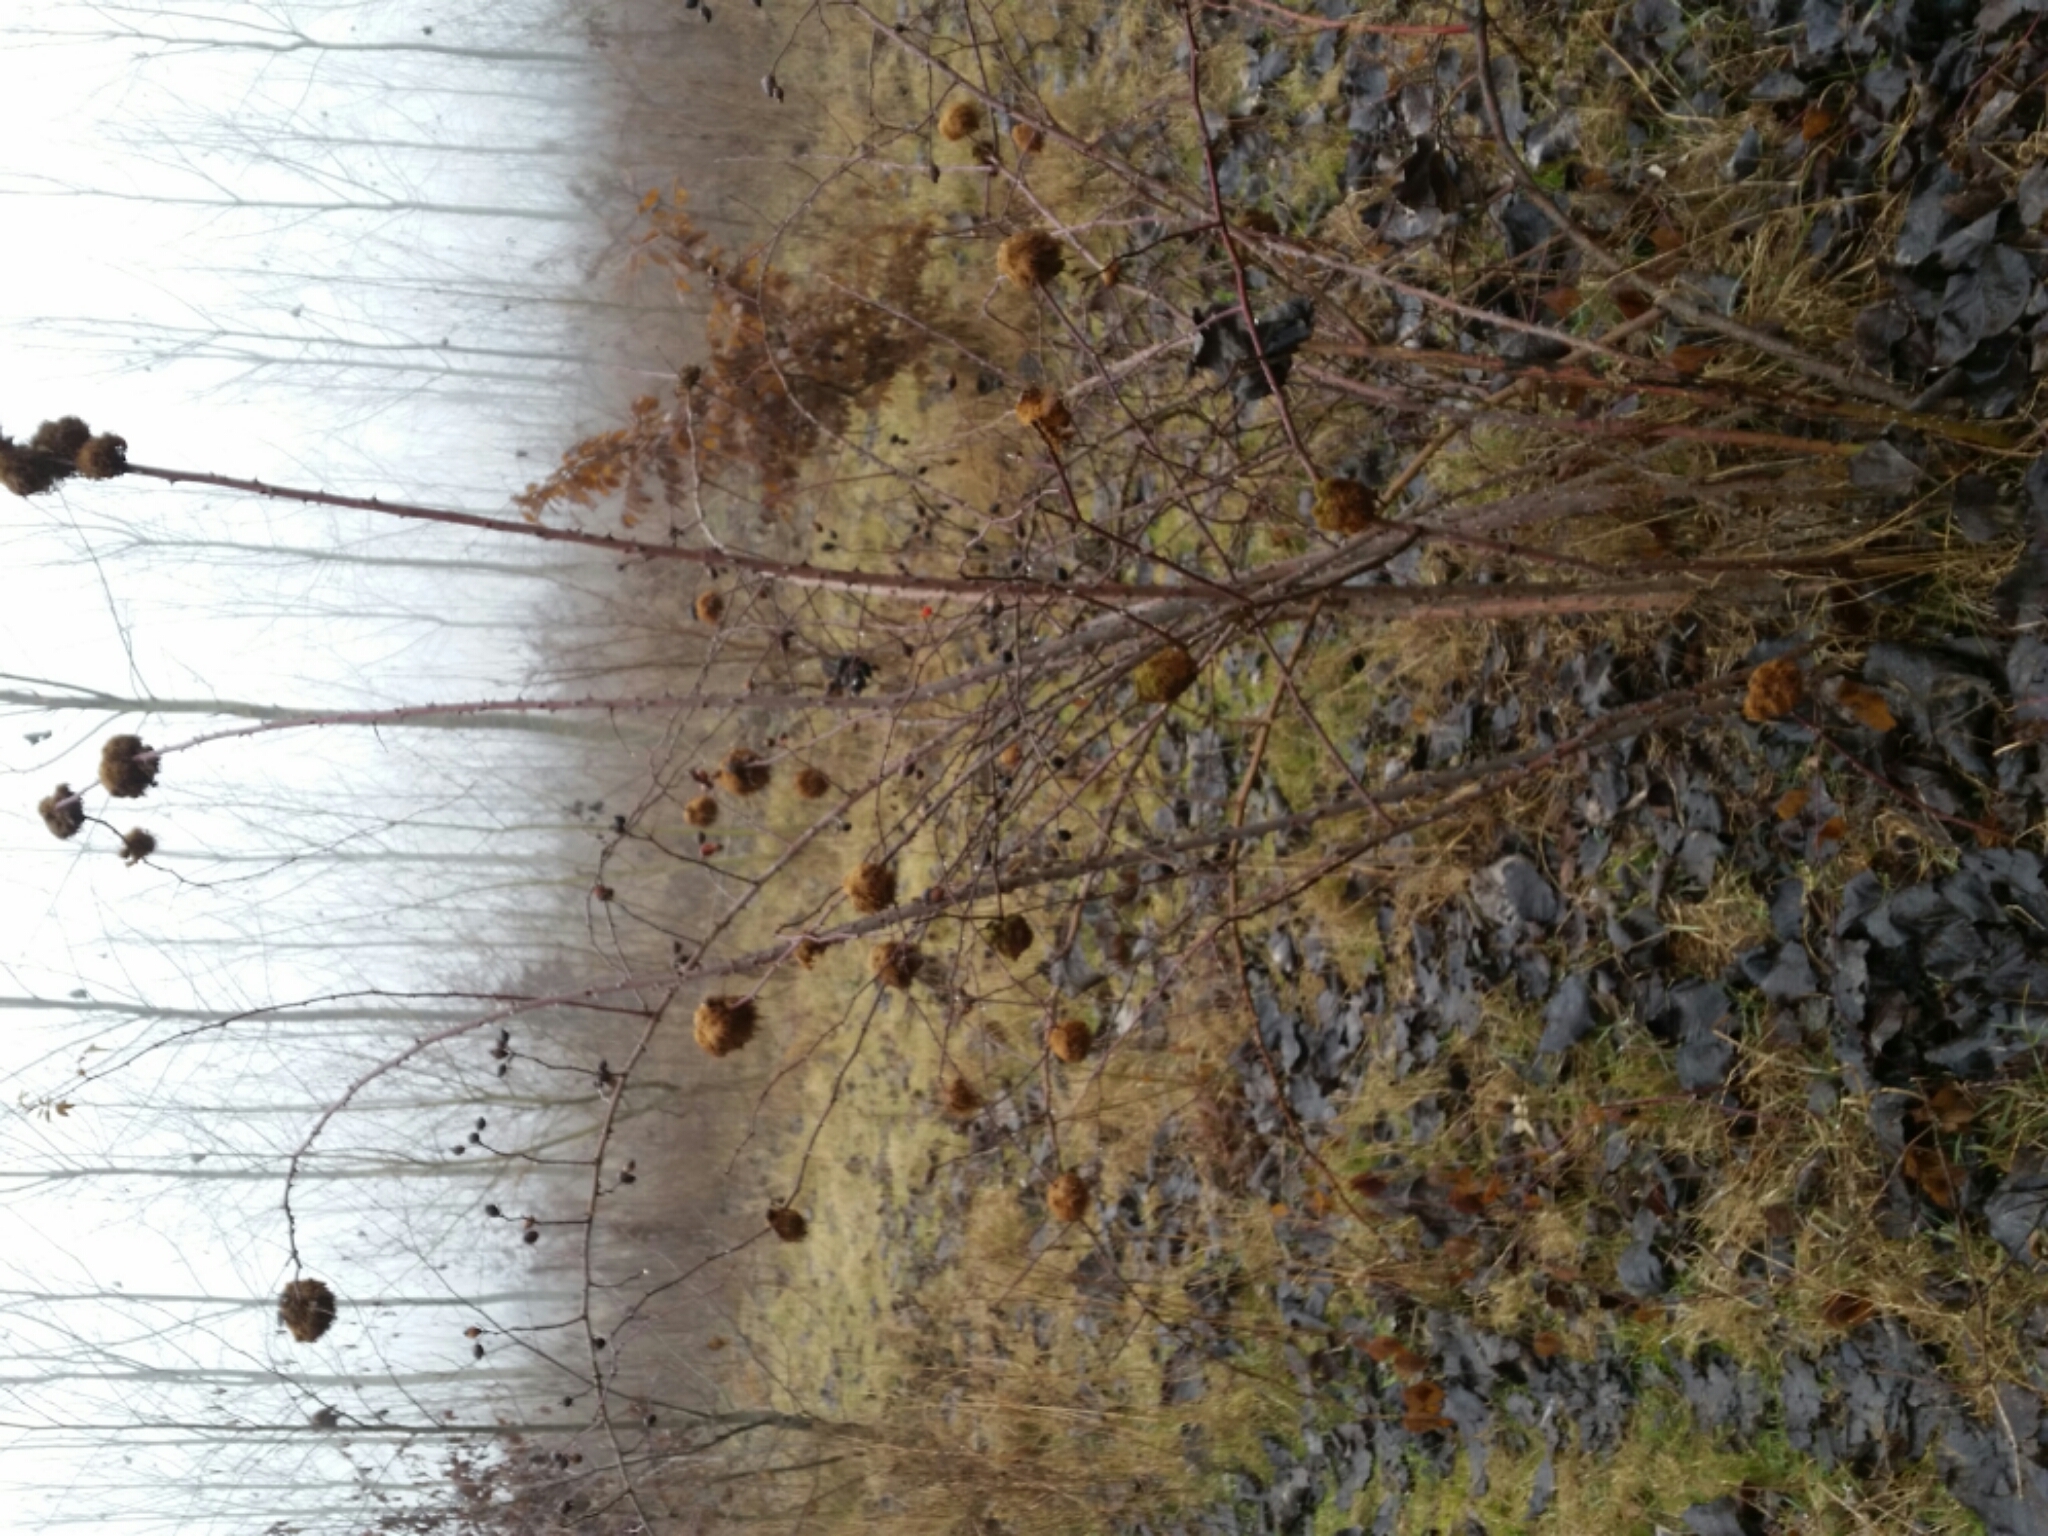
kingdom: Animalia
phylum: Arthropoda
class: Insecta
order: Hymenoptera
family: Cynipidae
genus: Diplolepis
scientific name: Diplolepis rosae
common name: Bedeguar gall
